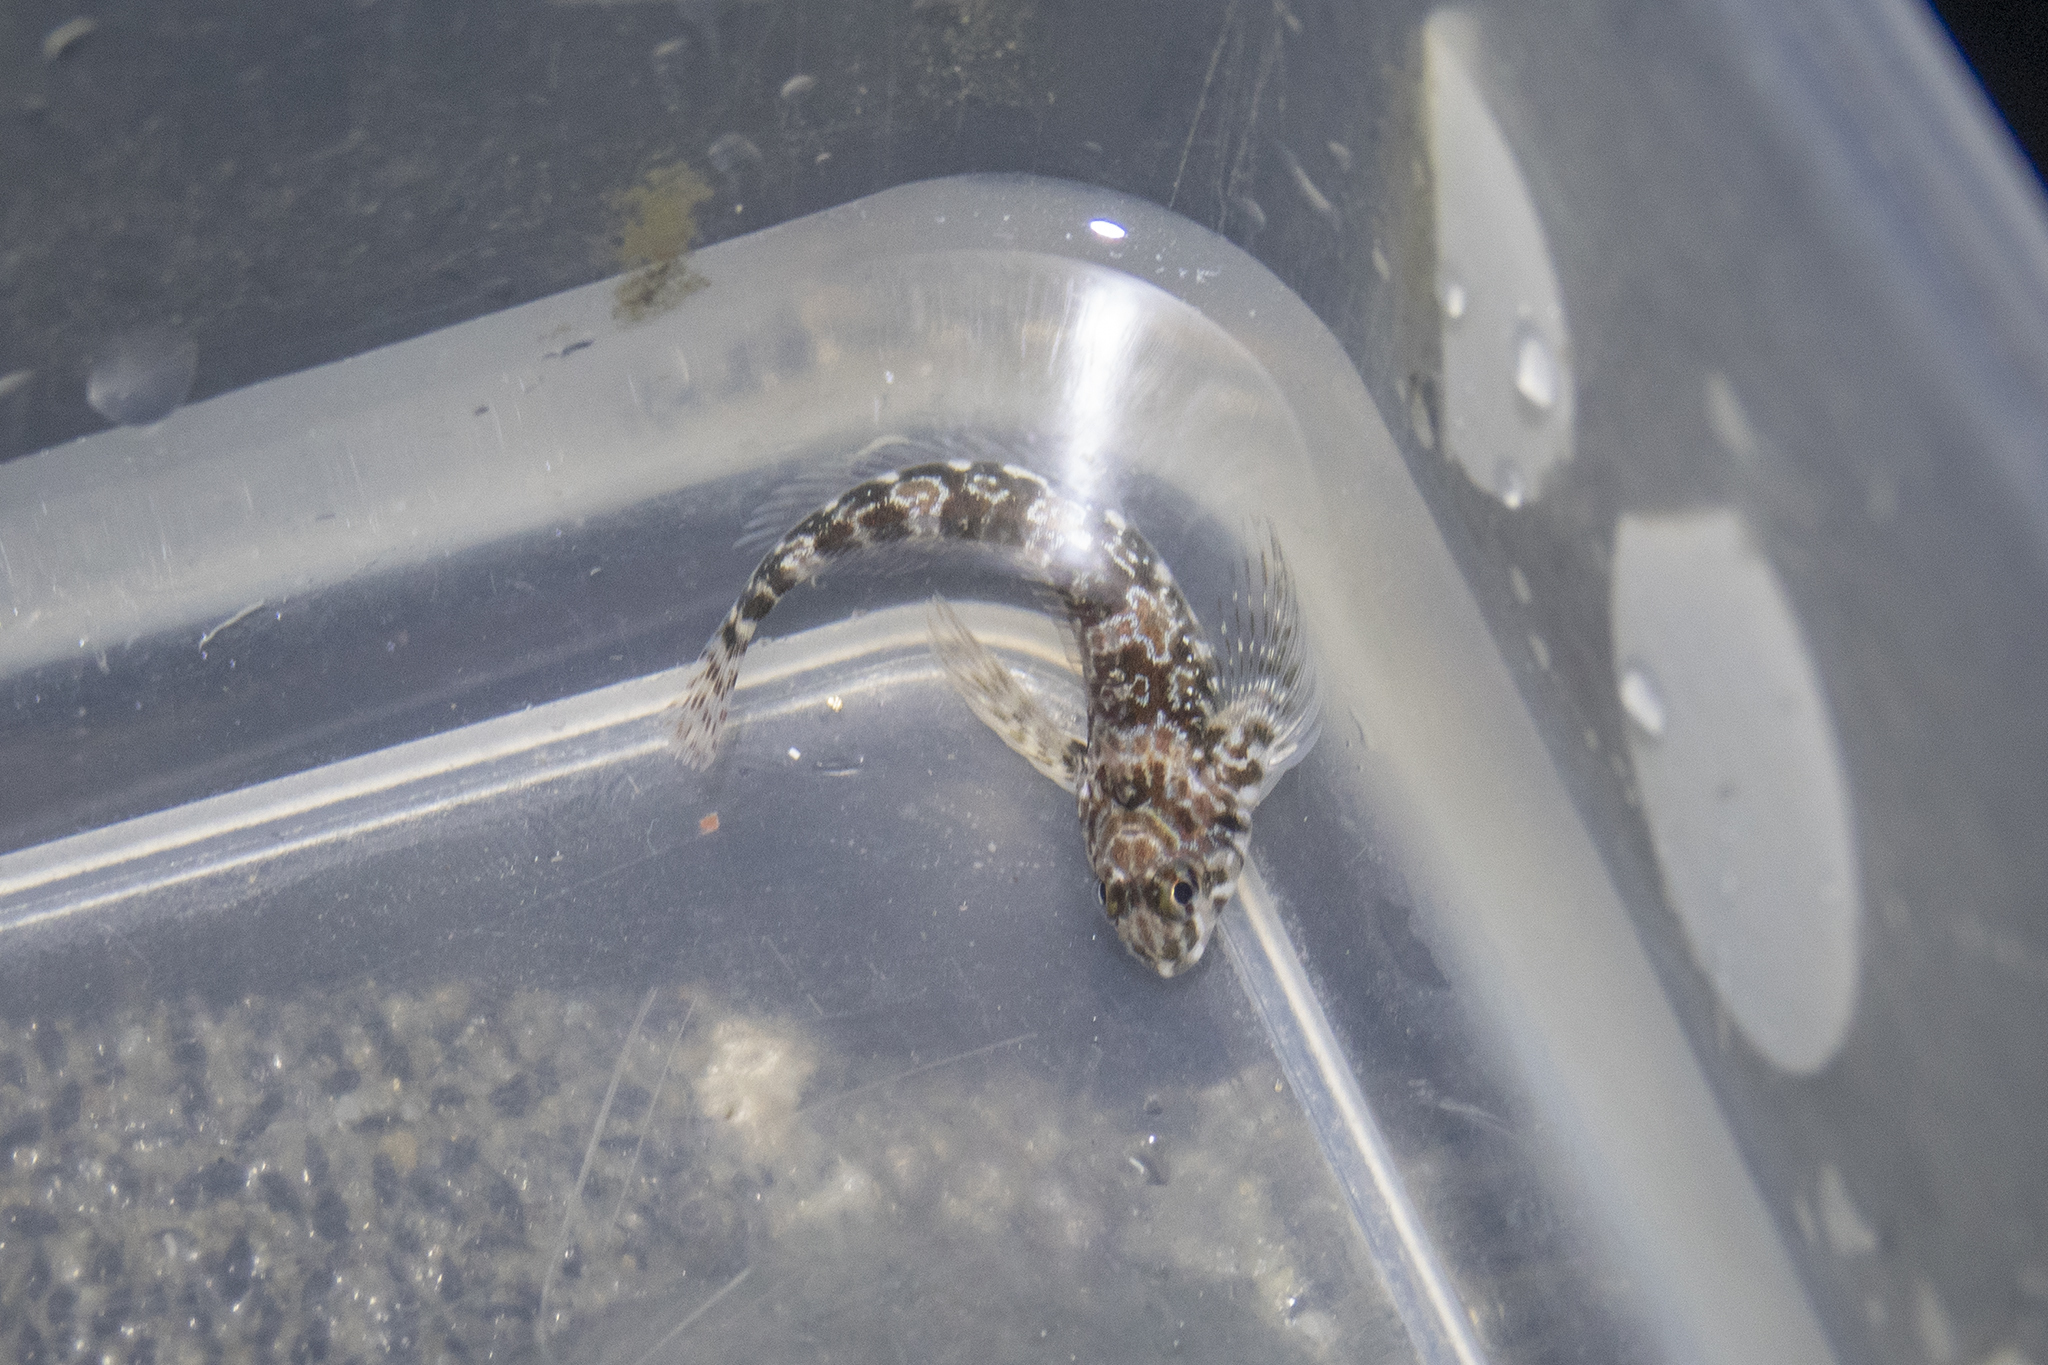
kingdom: Animalia
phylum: Chordata
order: Perciformes
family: Tripterygiidae
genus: Bellapiscis
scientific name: Bellapiscis lesleyae
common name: Mottled twister
